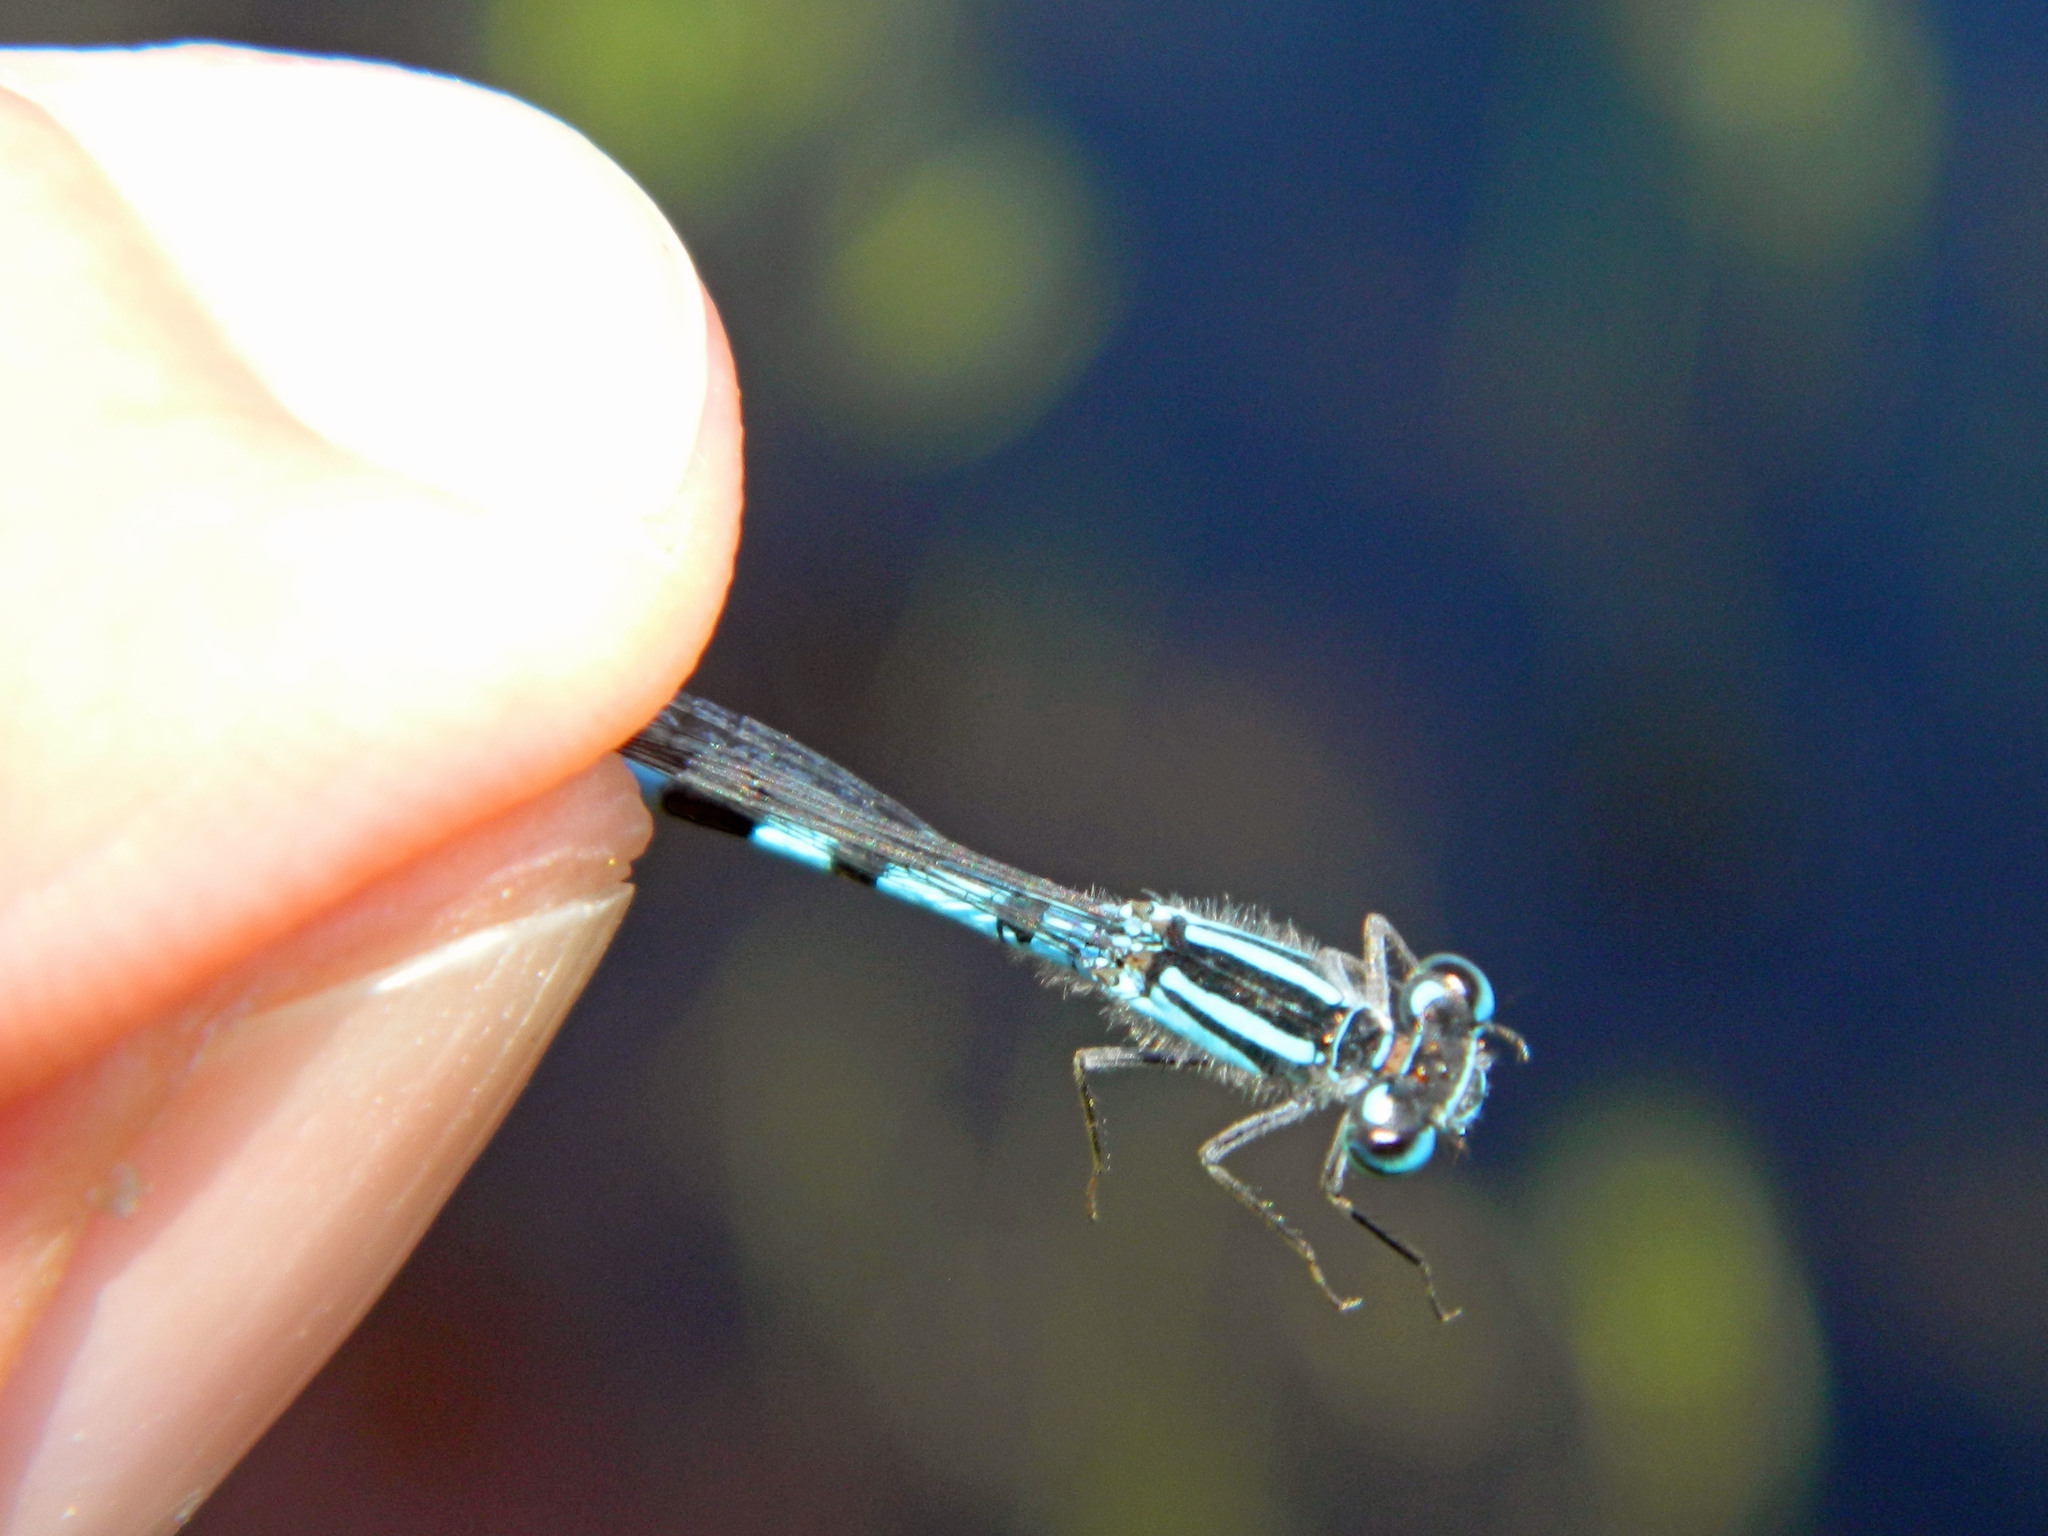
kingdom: Animalia
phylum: Arthropoda
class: Insecta
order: Odonata
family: Coenagrionidae
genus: Enallagma
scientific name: Enallagma ebrium
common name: Marsh bluet
